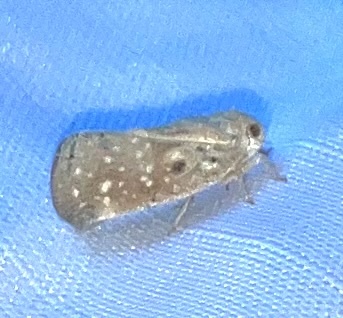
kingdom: Animalia
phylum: Arthropoda
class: Insecta
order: Hemiptera
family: Flatidae
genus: Metcalfa
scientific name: Metcalfa pruinosa
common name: Citrus flatid planthopper
